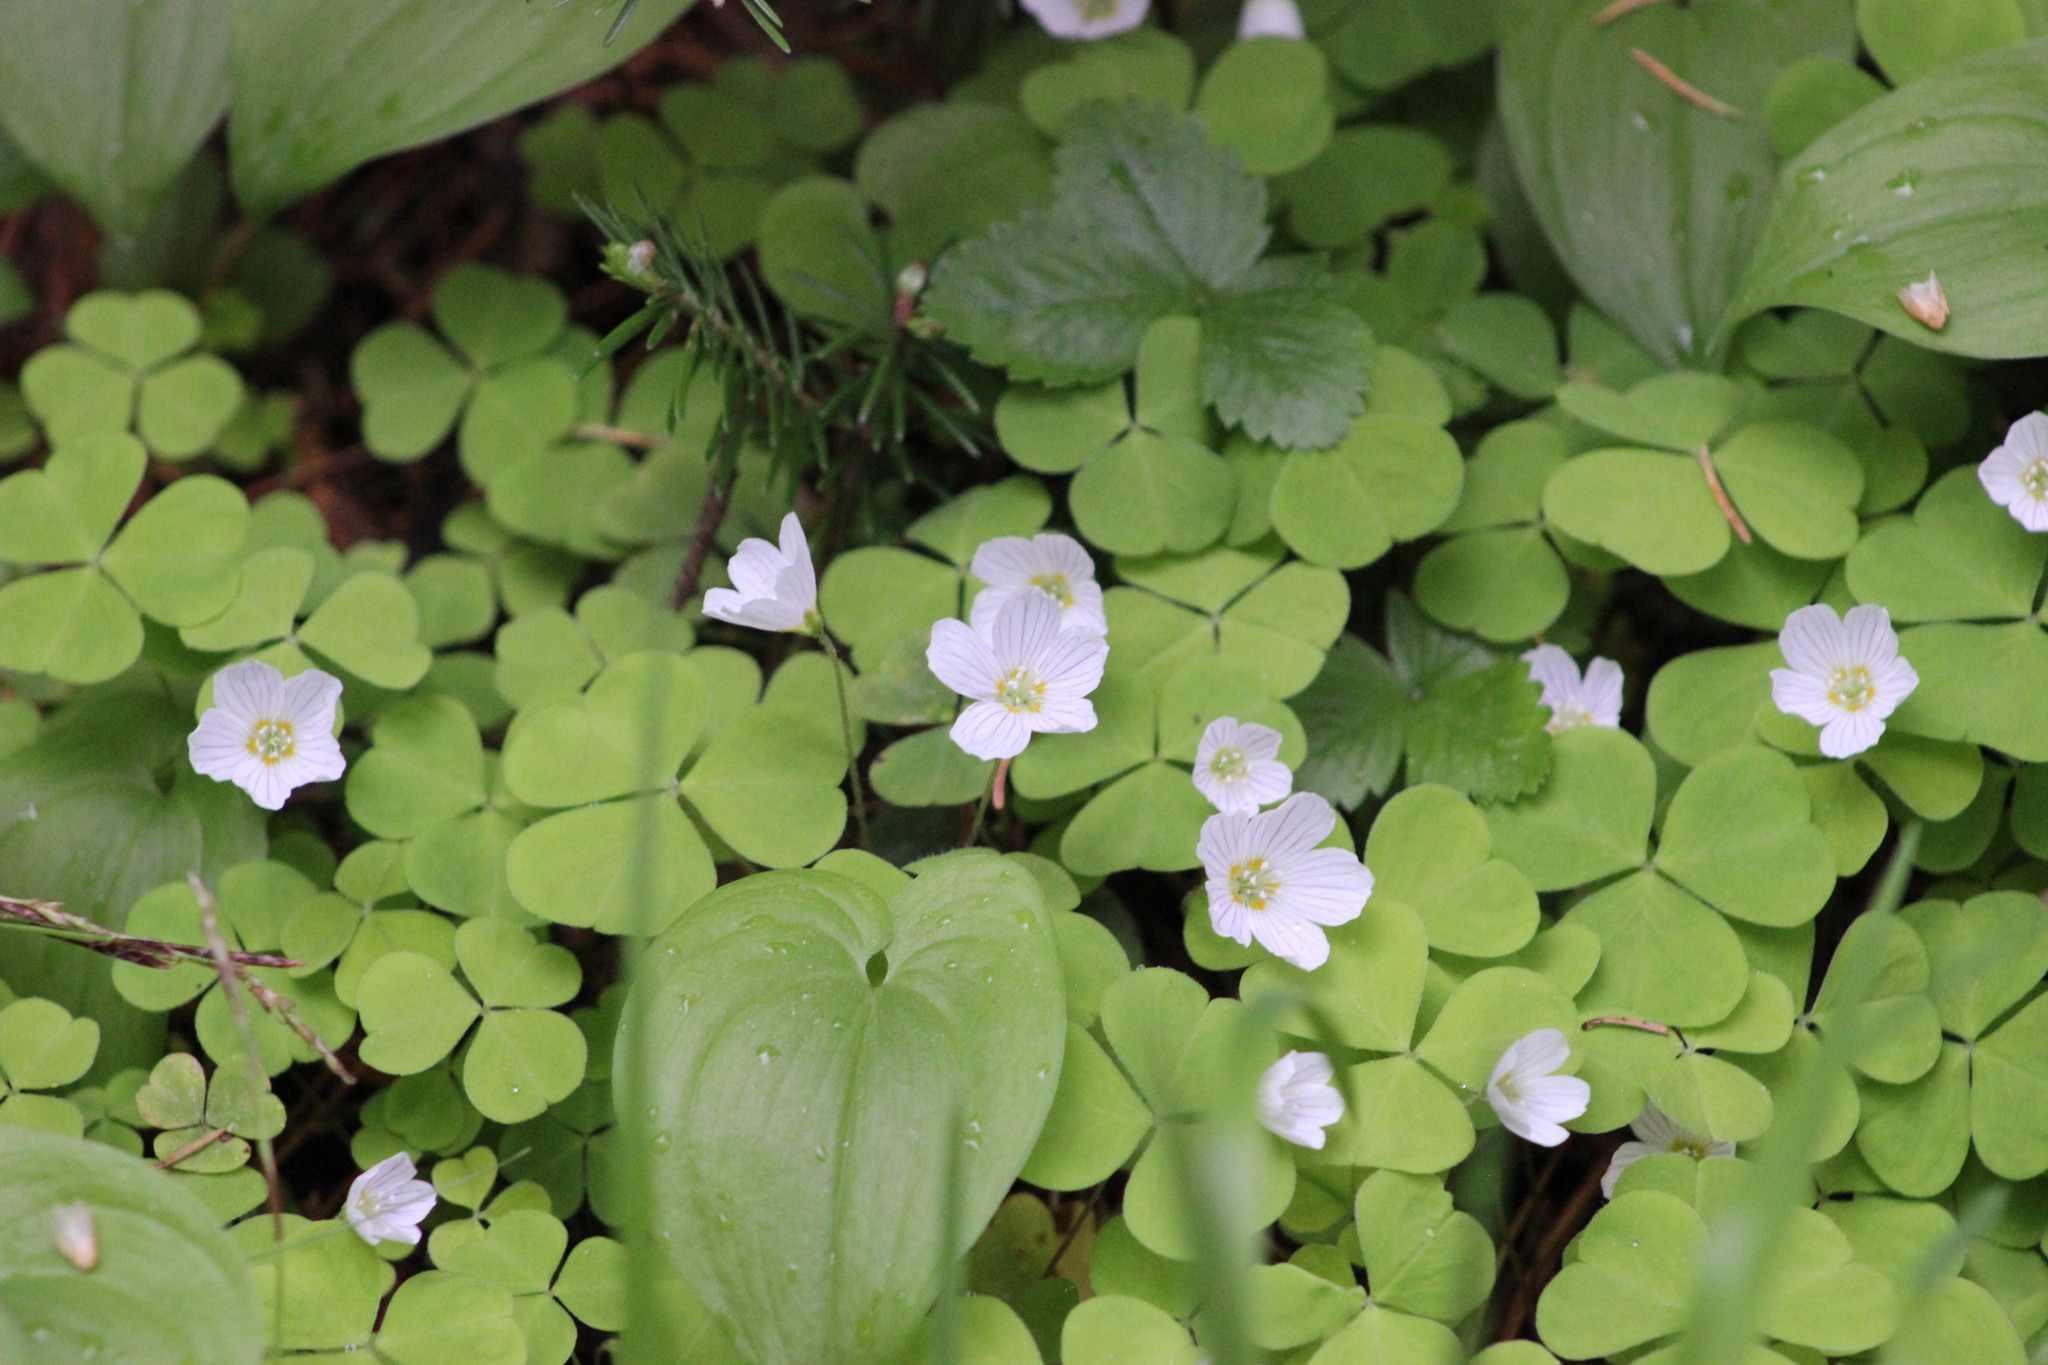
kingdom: Plantae
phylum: Tracheophyta
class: Magnoliopsida
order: Oxalidales
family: Oxalidaceae
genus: Oxalis
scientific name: Oxalis acetosella
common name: Wood-sorrel
